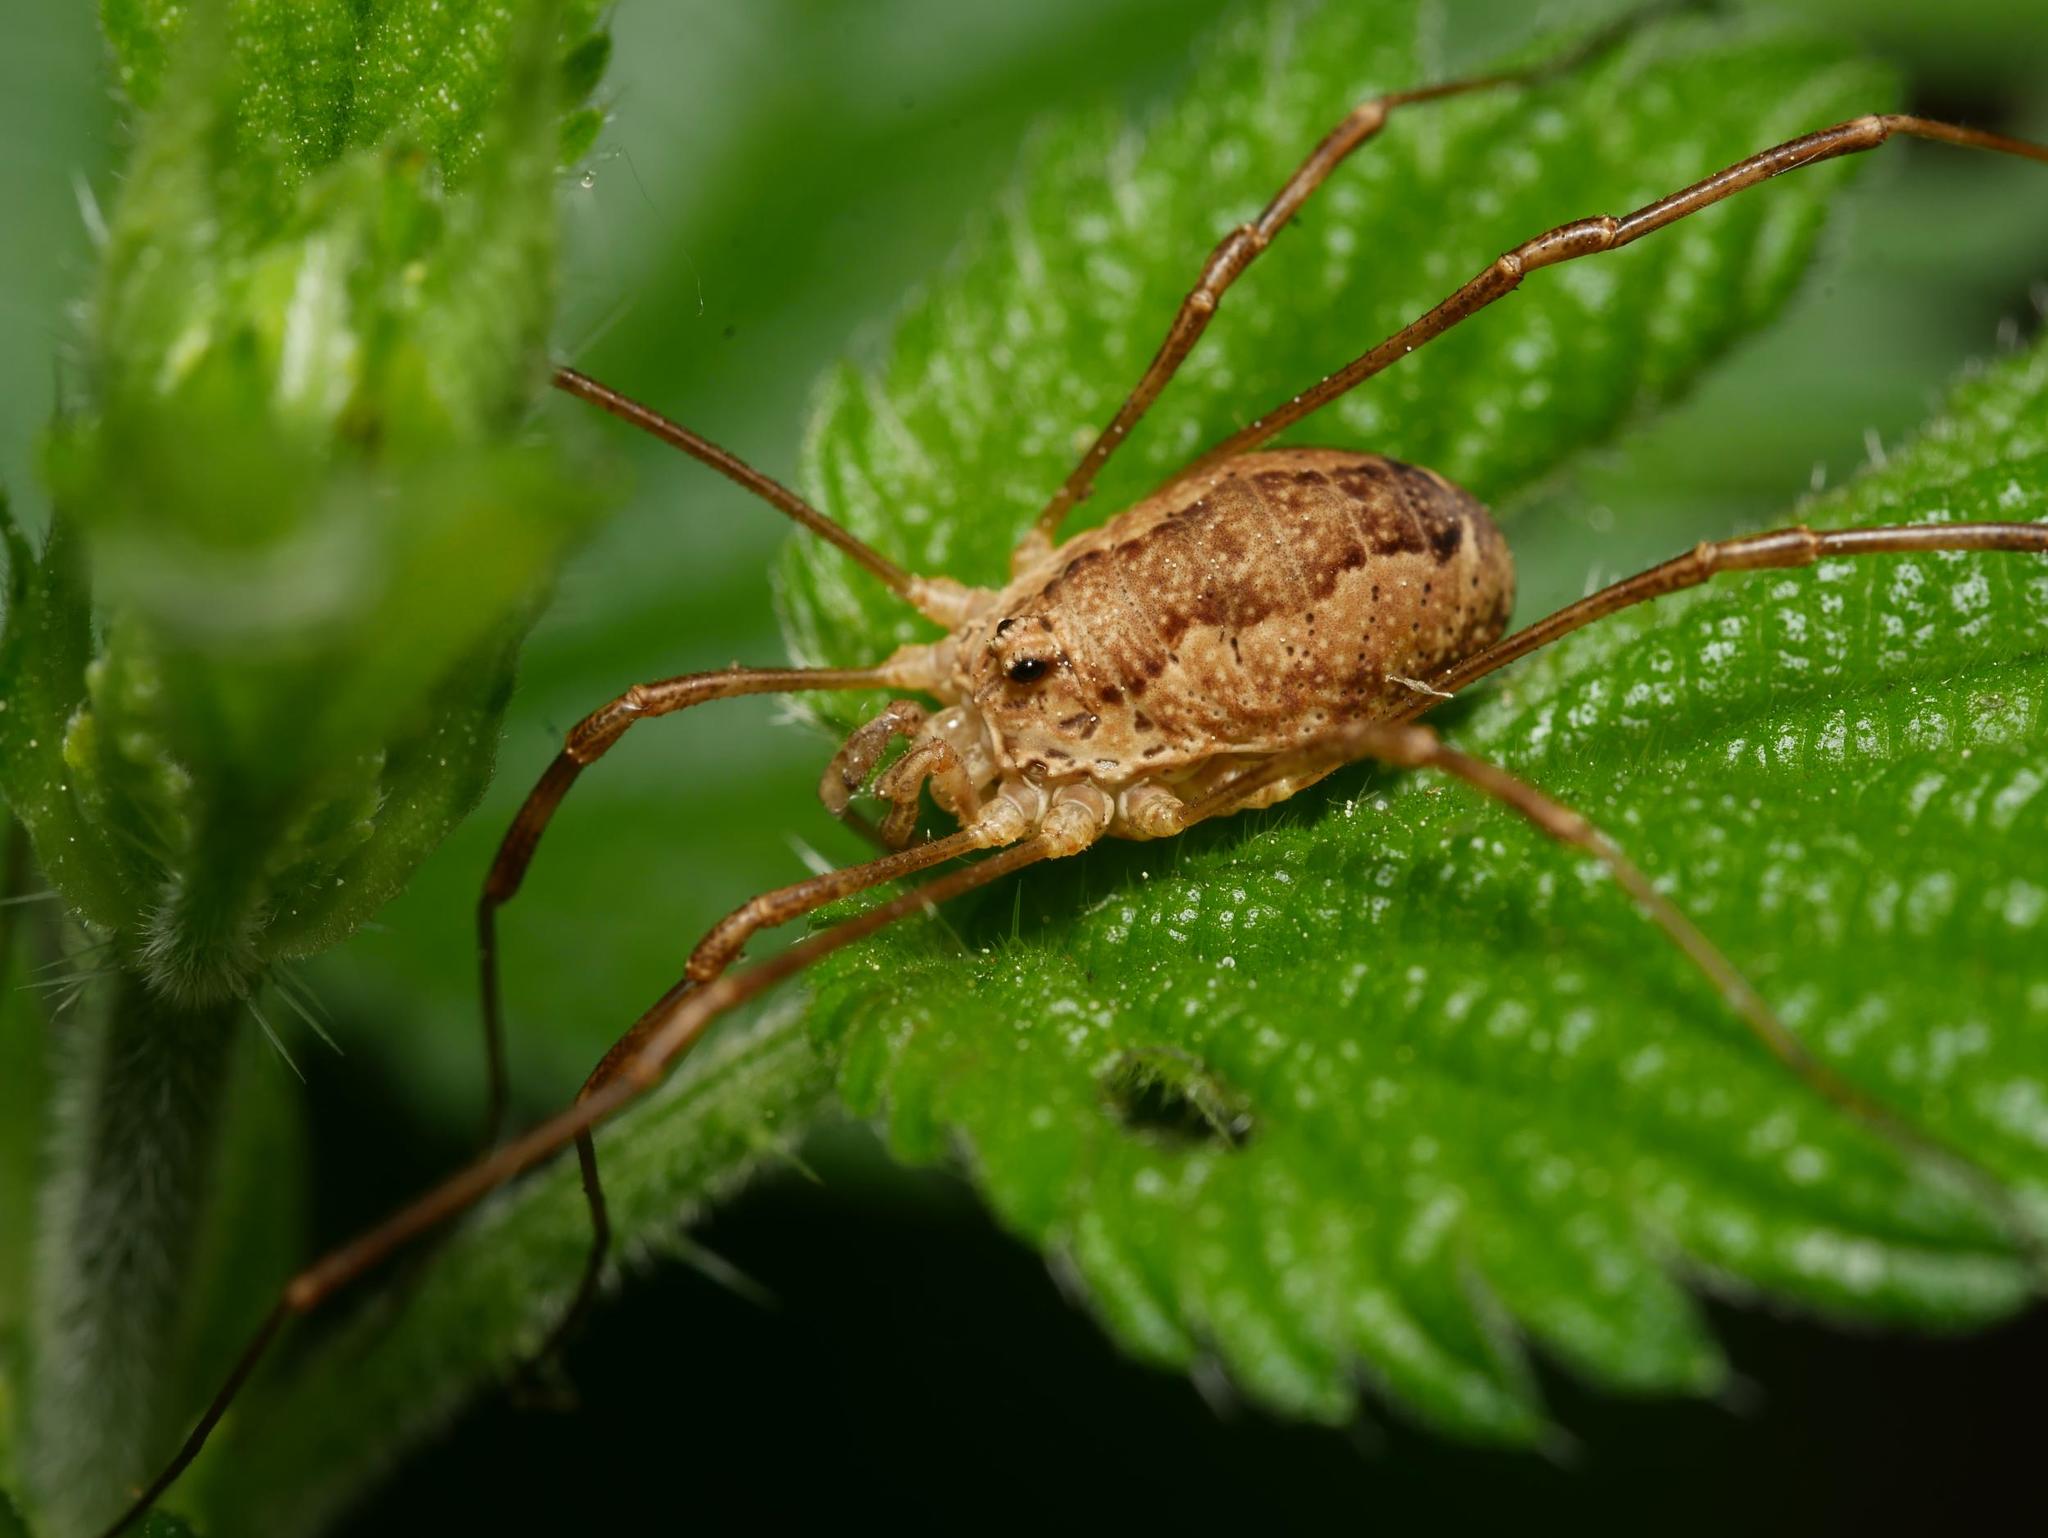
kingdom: Animalia
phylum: Arthropoda
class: Arachnida
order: Opiliones
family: Phalangiidae
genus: Rilaena
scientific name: Rilaena triangularis
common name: Spring harvestman
